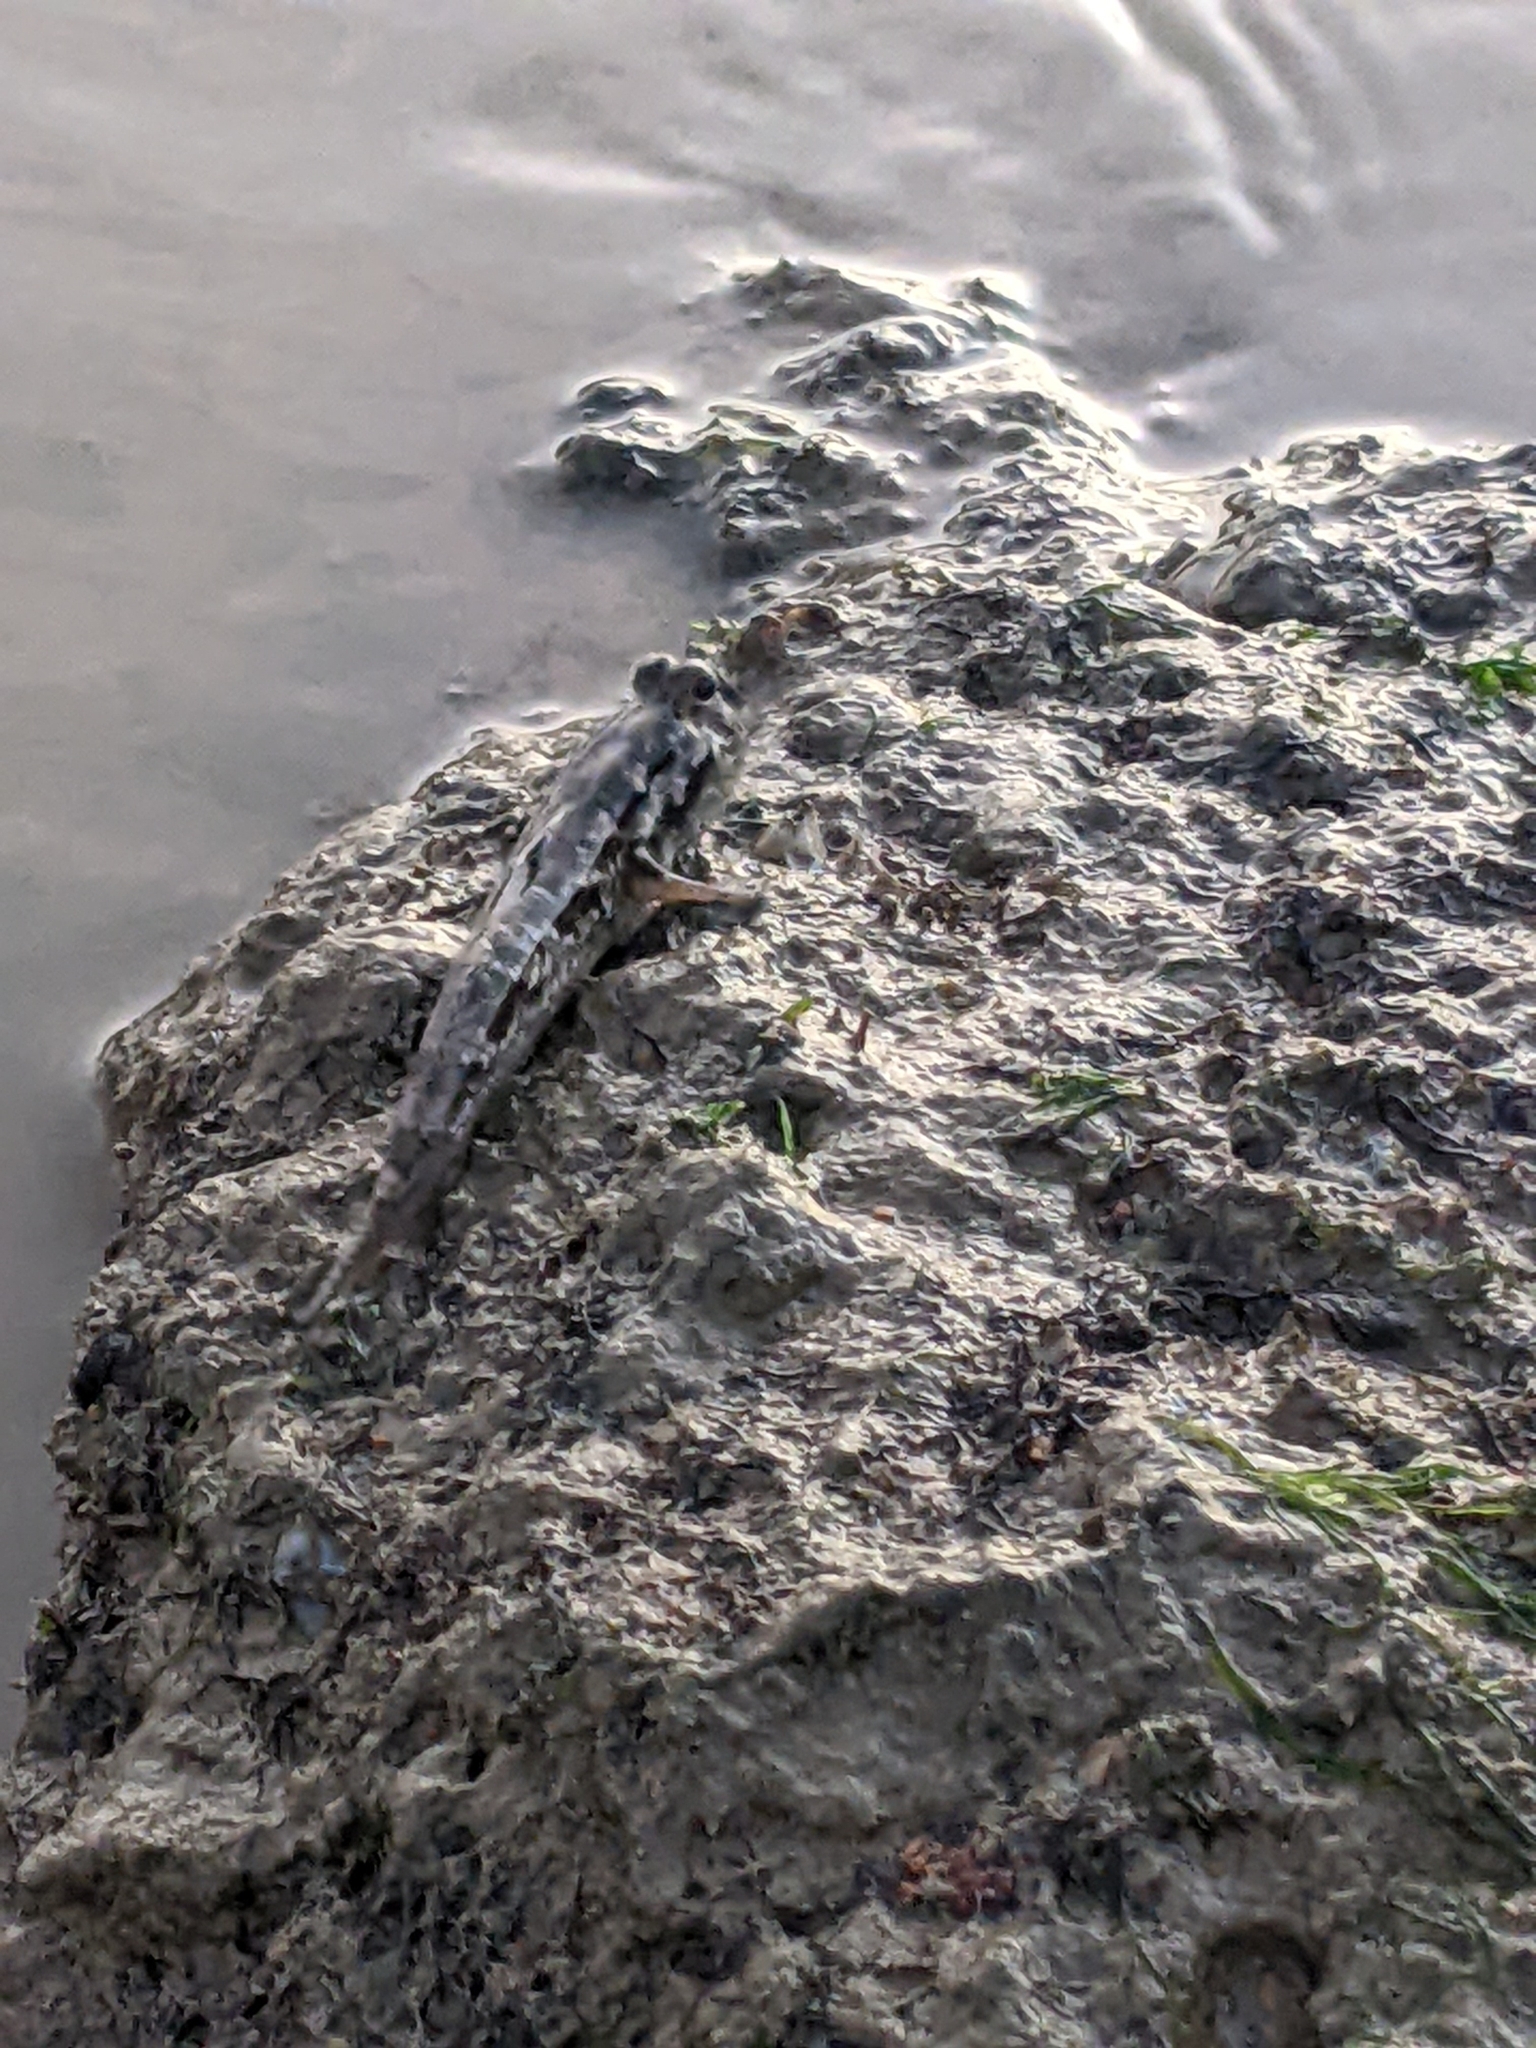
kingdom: Animalia
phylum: Chordata
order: Perciformes
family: Gobiidae
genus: Periophthalmus
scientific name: Periophthalmus walailakae
